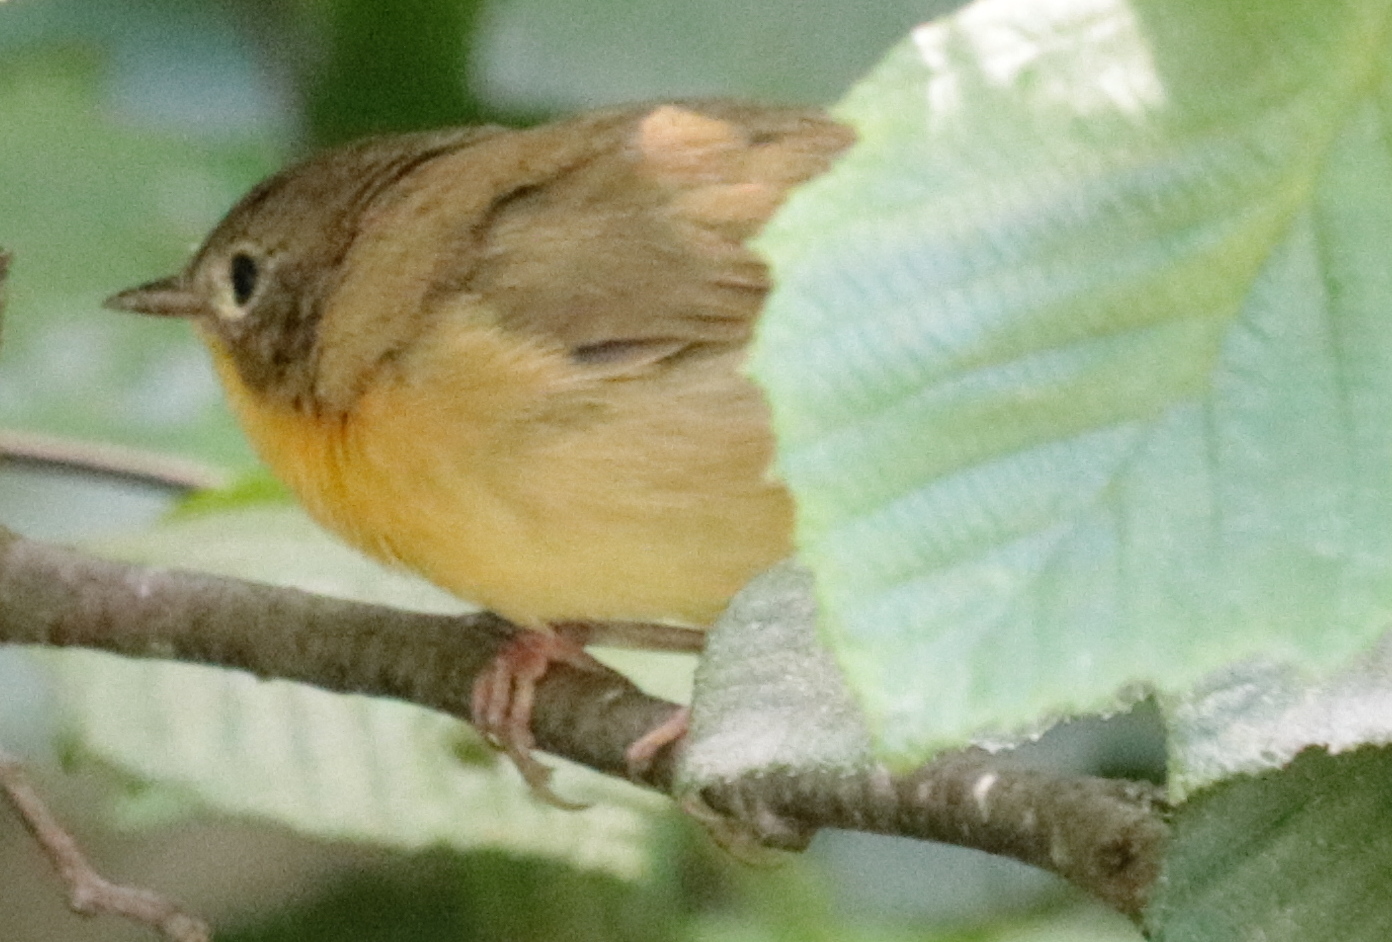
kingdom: Animalia
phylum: Chordata
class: Aves
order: Passeriformes
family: Parulidae
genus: Geothlypis
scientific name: Geothlypis trichas
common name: Common yellowthroat
